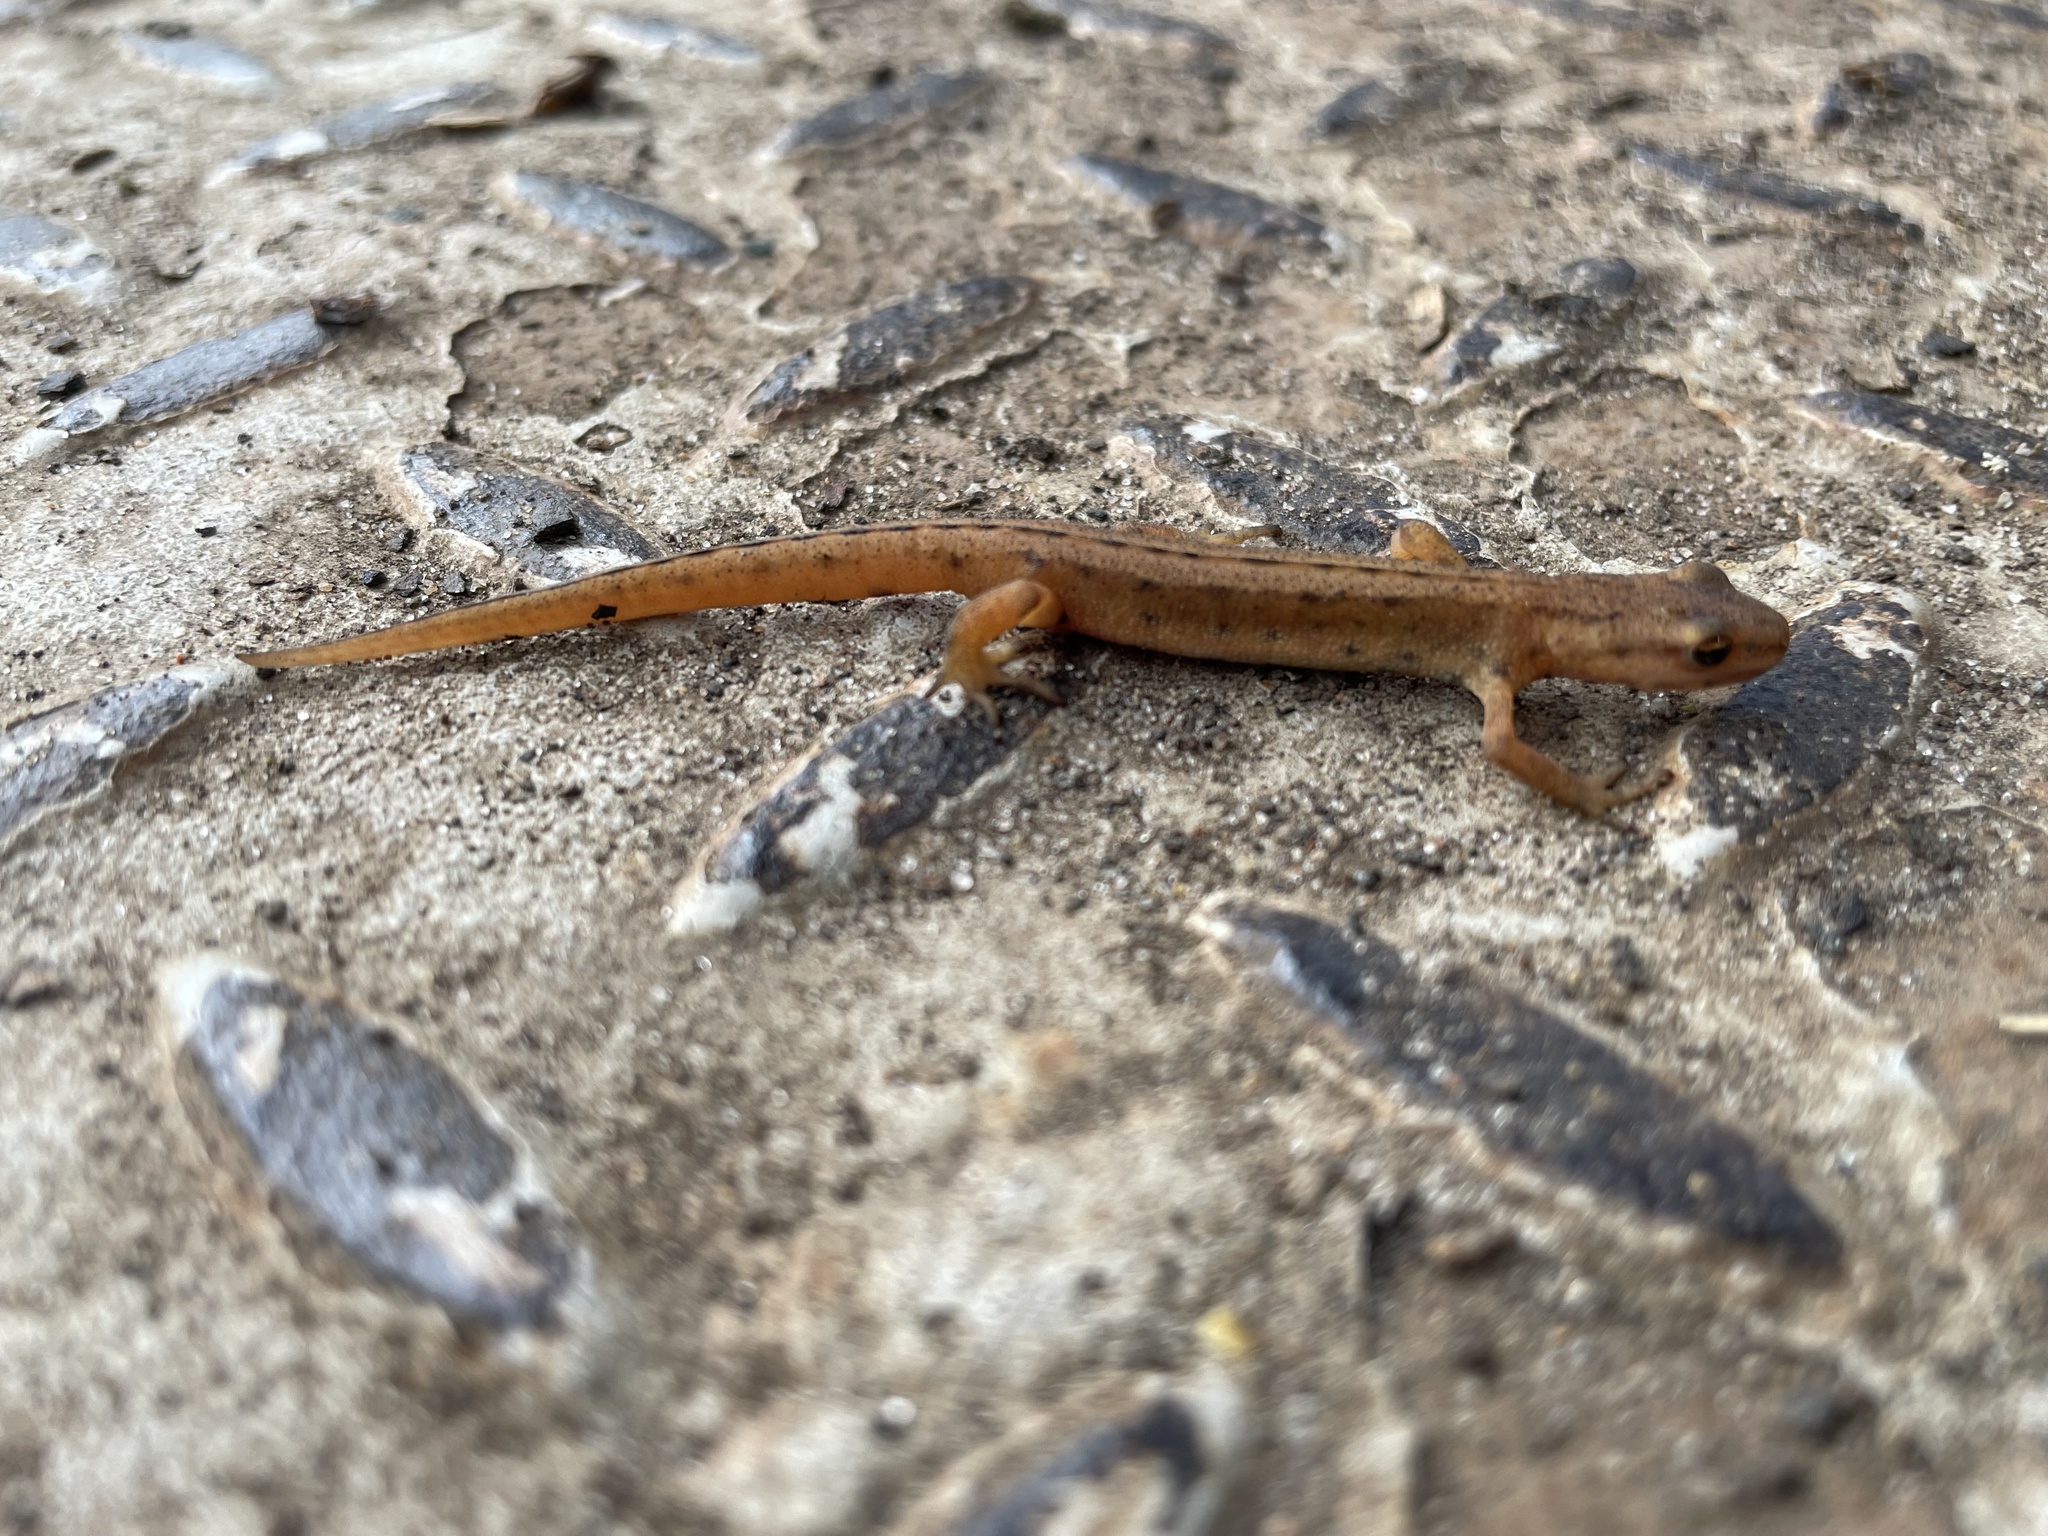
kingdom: Animalia
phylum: Chordata
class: Amphibia
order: Caudata
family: Salamandridae
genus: Lissotriton
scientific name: Lissotriton vulgaris
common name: Smooth newt
